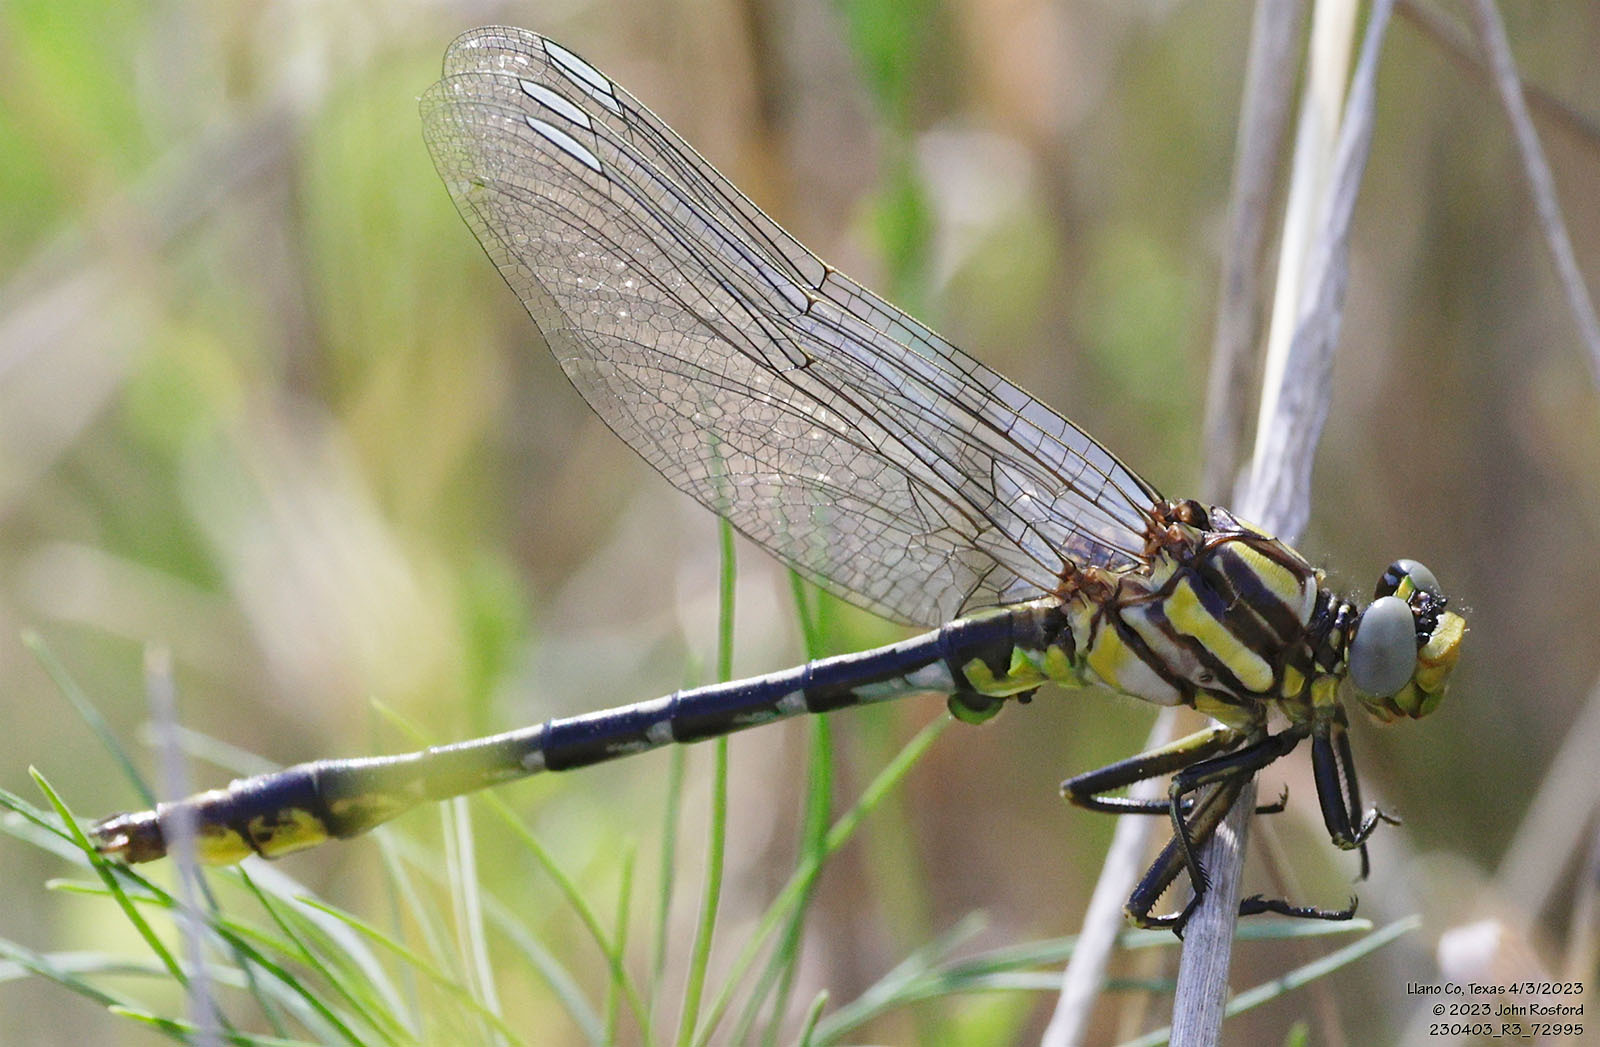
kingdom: Animalia
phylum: Arthropoda
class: Insecta
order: Odonata
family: Gomphidae
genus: Phanogomphus
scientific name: Phanogomphus militaris
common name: Sulphur-tipped clubtail
